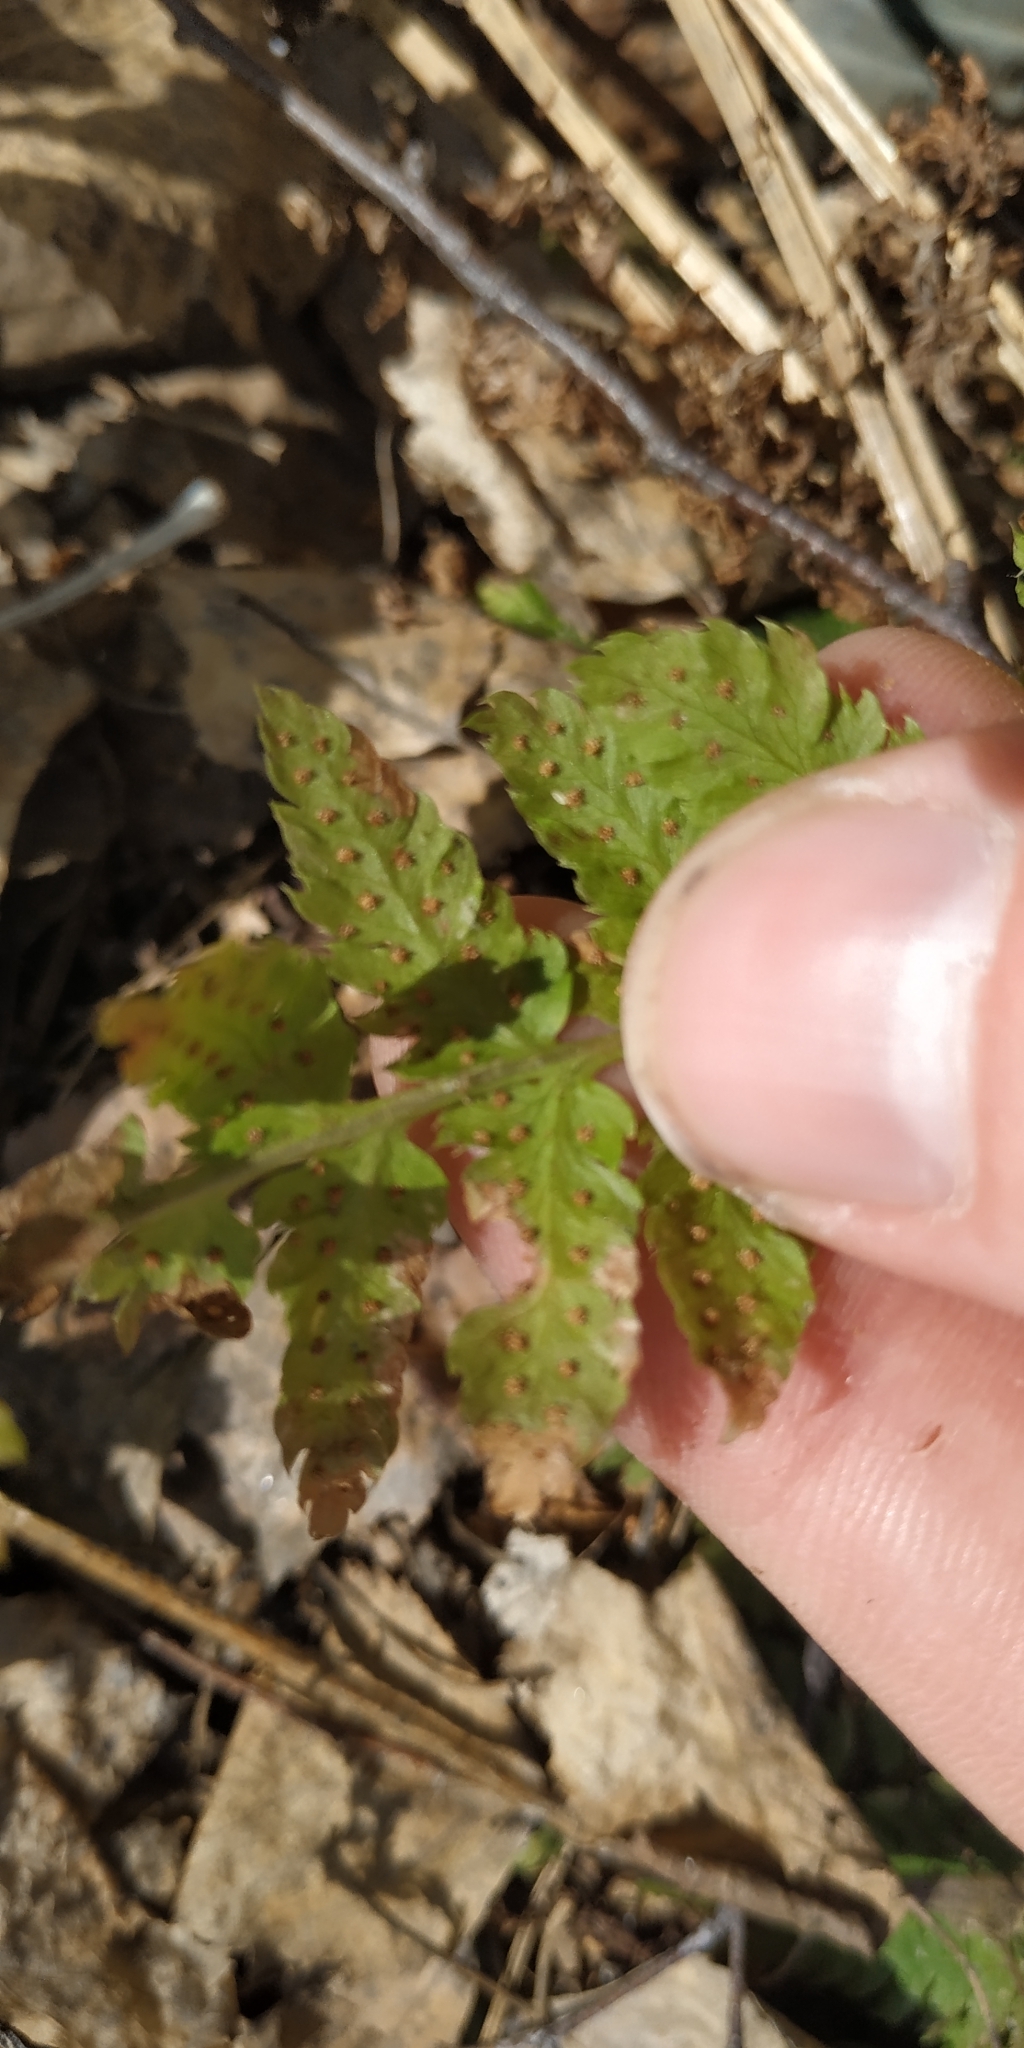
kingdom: Plantae
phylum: Tracheophyta
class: Polypodiopsida
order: Polypodiales
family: Dryopteridaceae
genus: Dryopteris
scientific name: Dryopteris carthusiana
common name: Narrow buckler-fern
